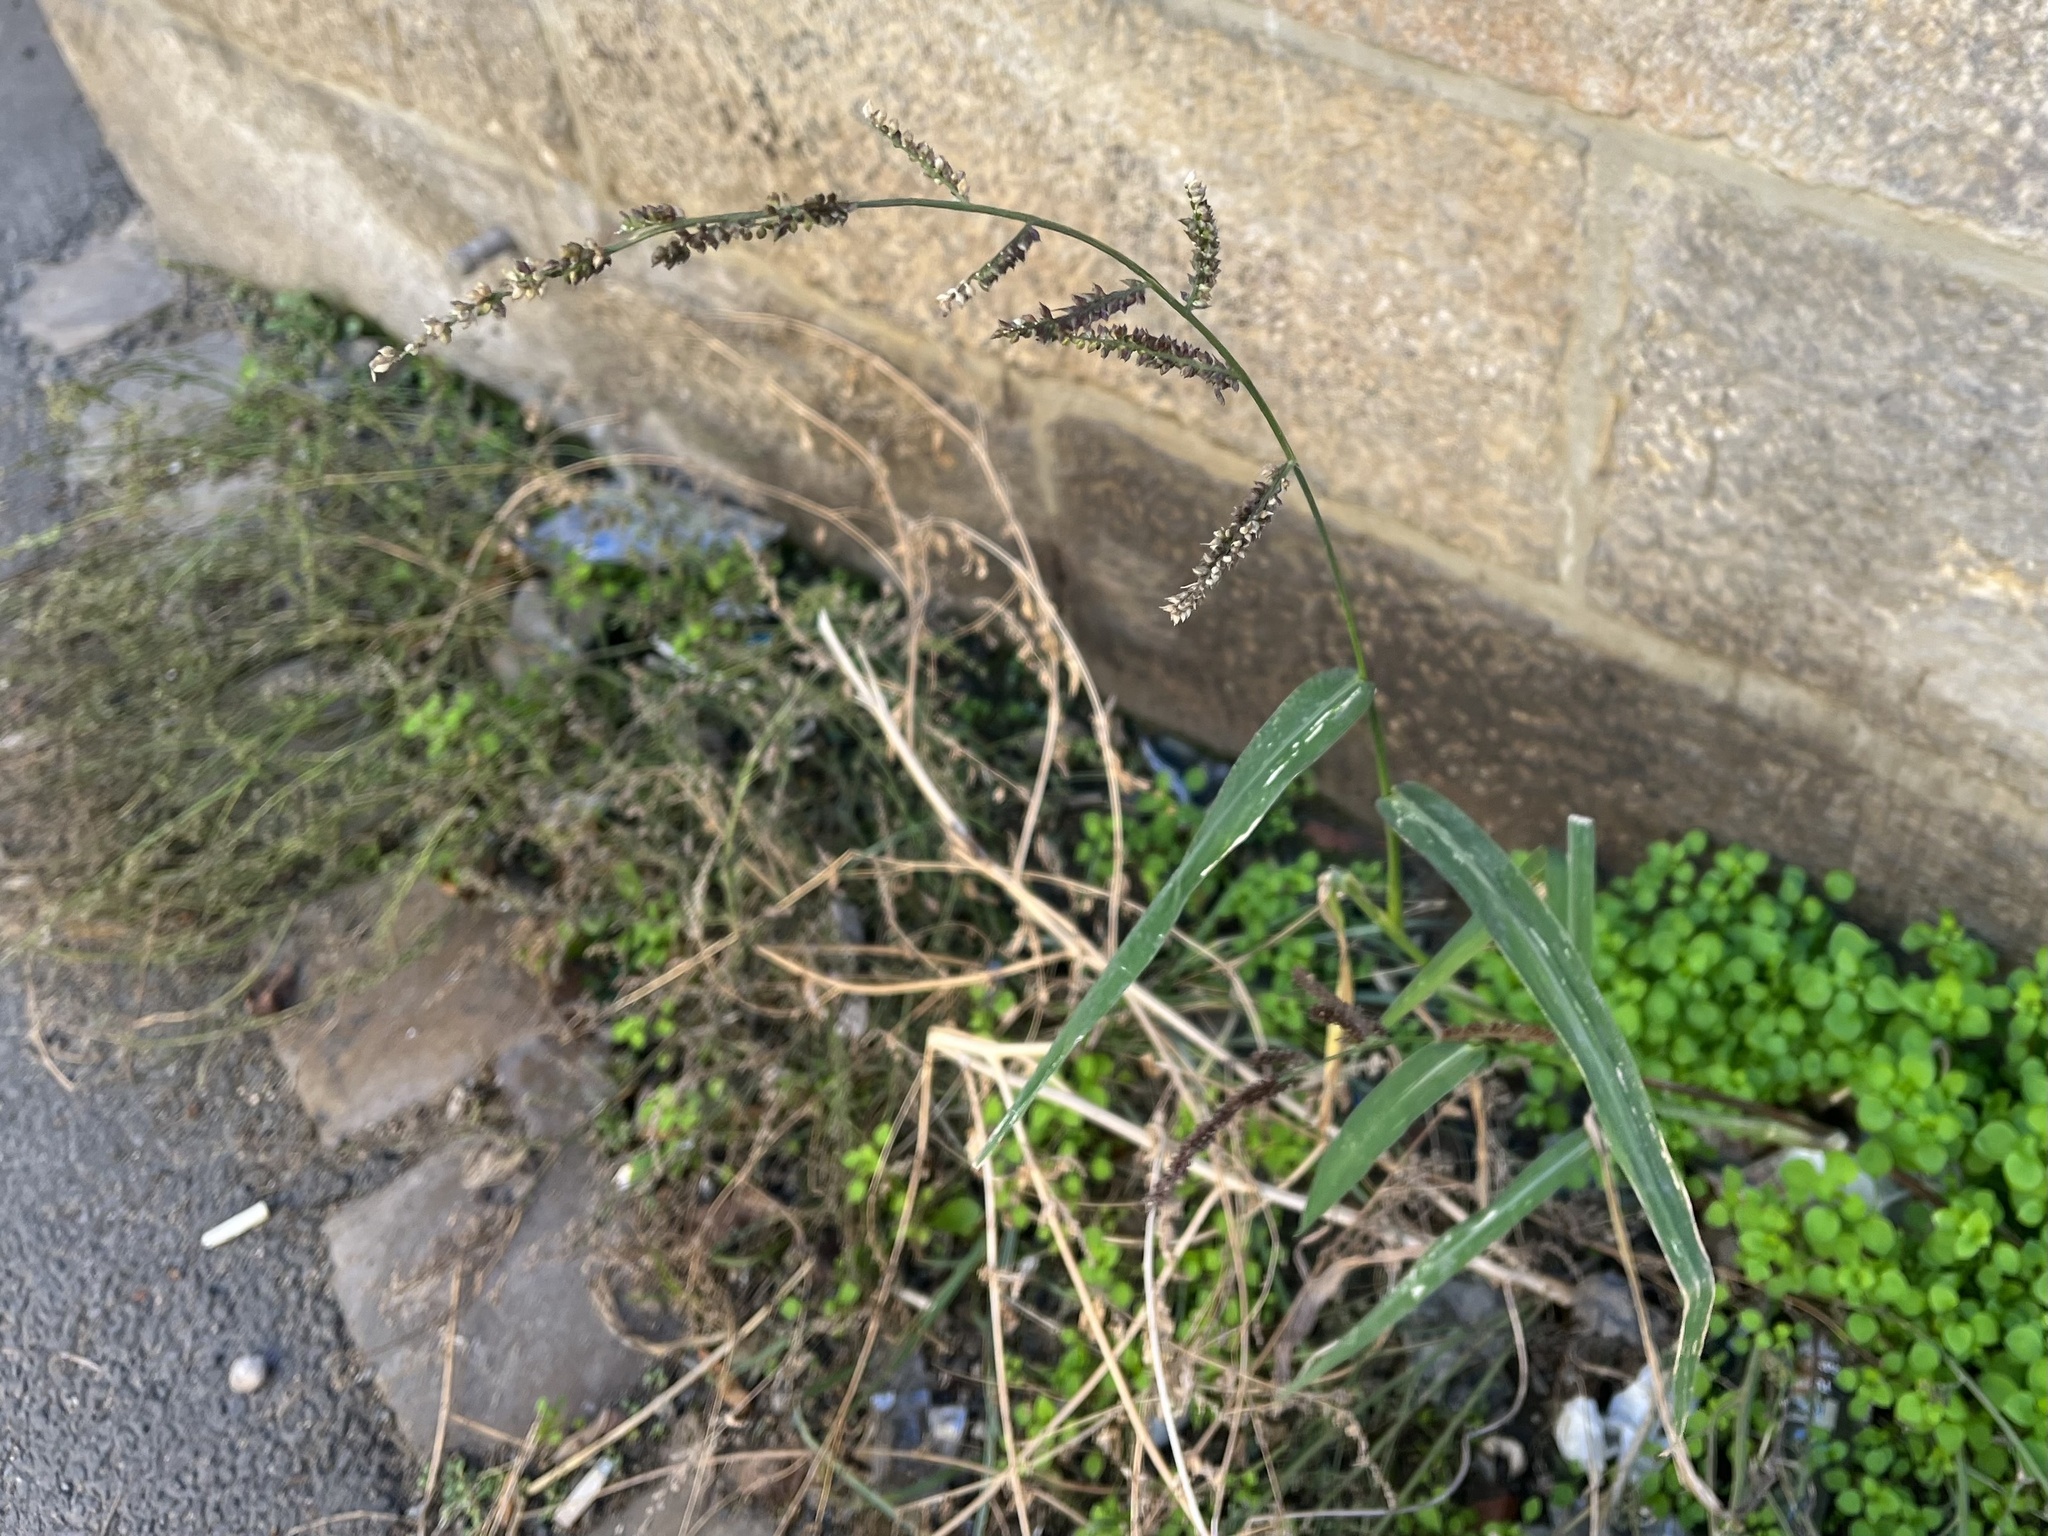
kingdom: Plantae
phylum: Tracheophyta
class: Liliopsida
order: Poales
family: Poaceae
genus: Echinochloa
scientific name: Echinochloa crus-galli
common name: Cockspur
